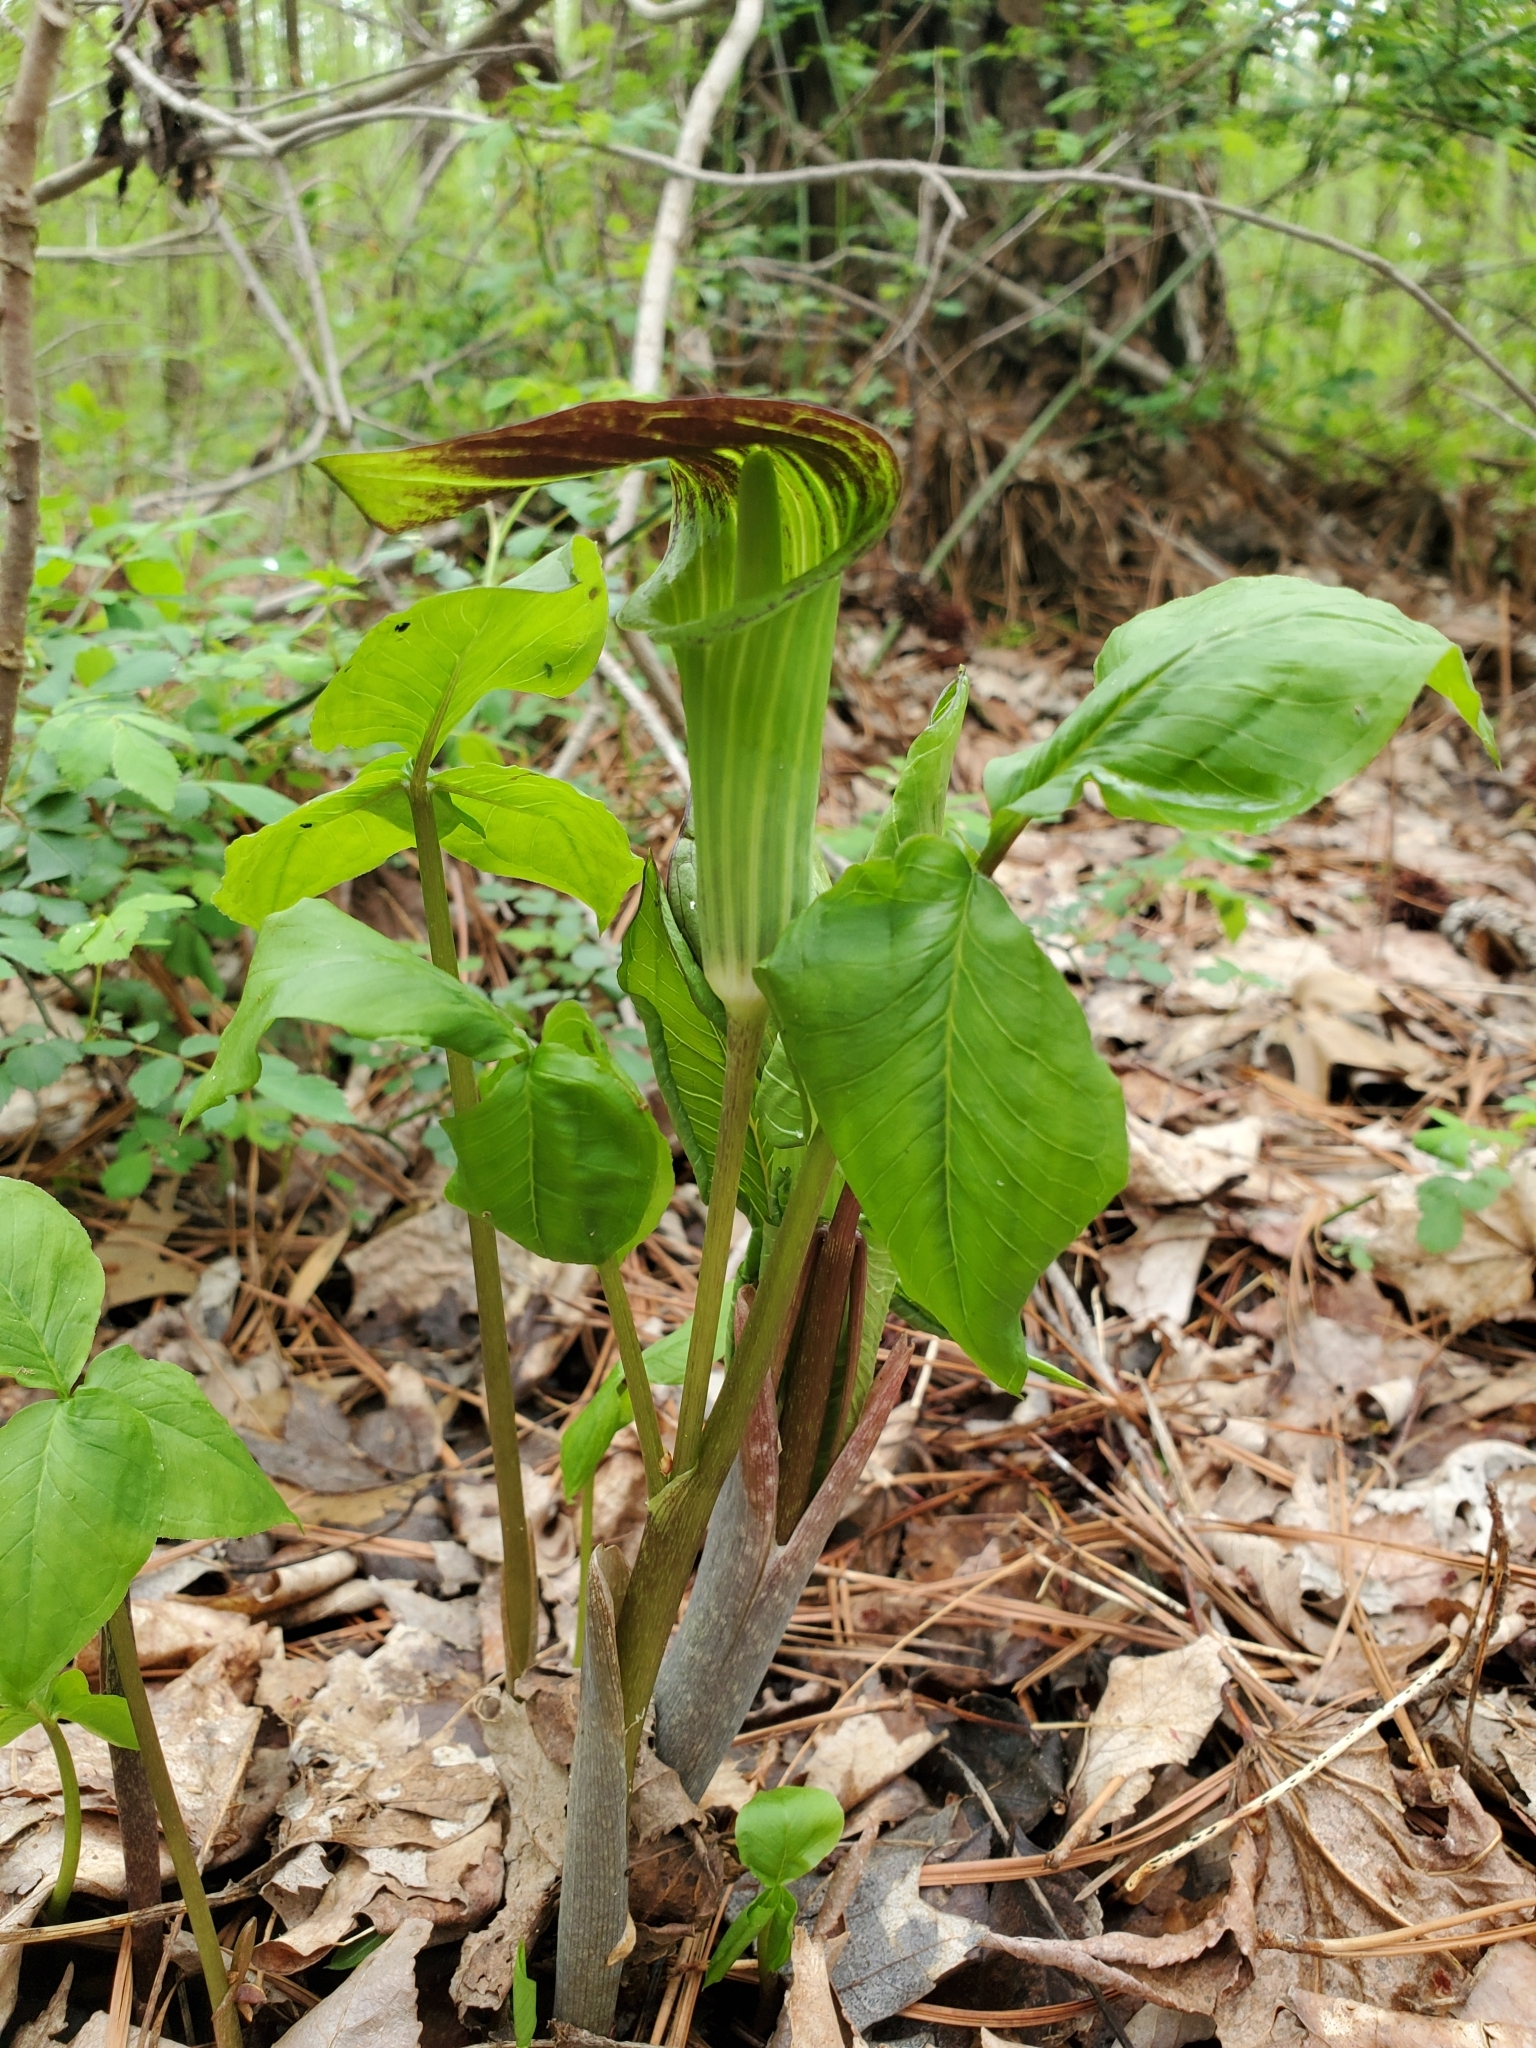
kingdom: Plantae
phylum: Tracheophyta
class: Liliopsida
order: Alismatales
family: Araceae
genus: Arisaema
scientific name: Arisaema triphyllum
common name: Jack-in-the-pulpit
